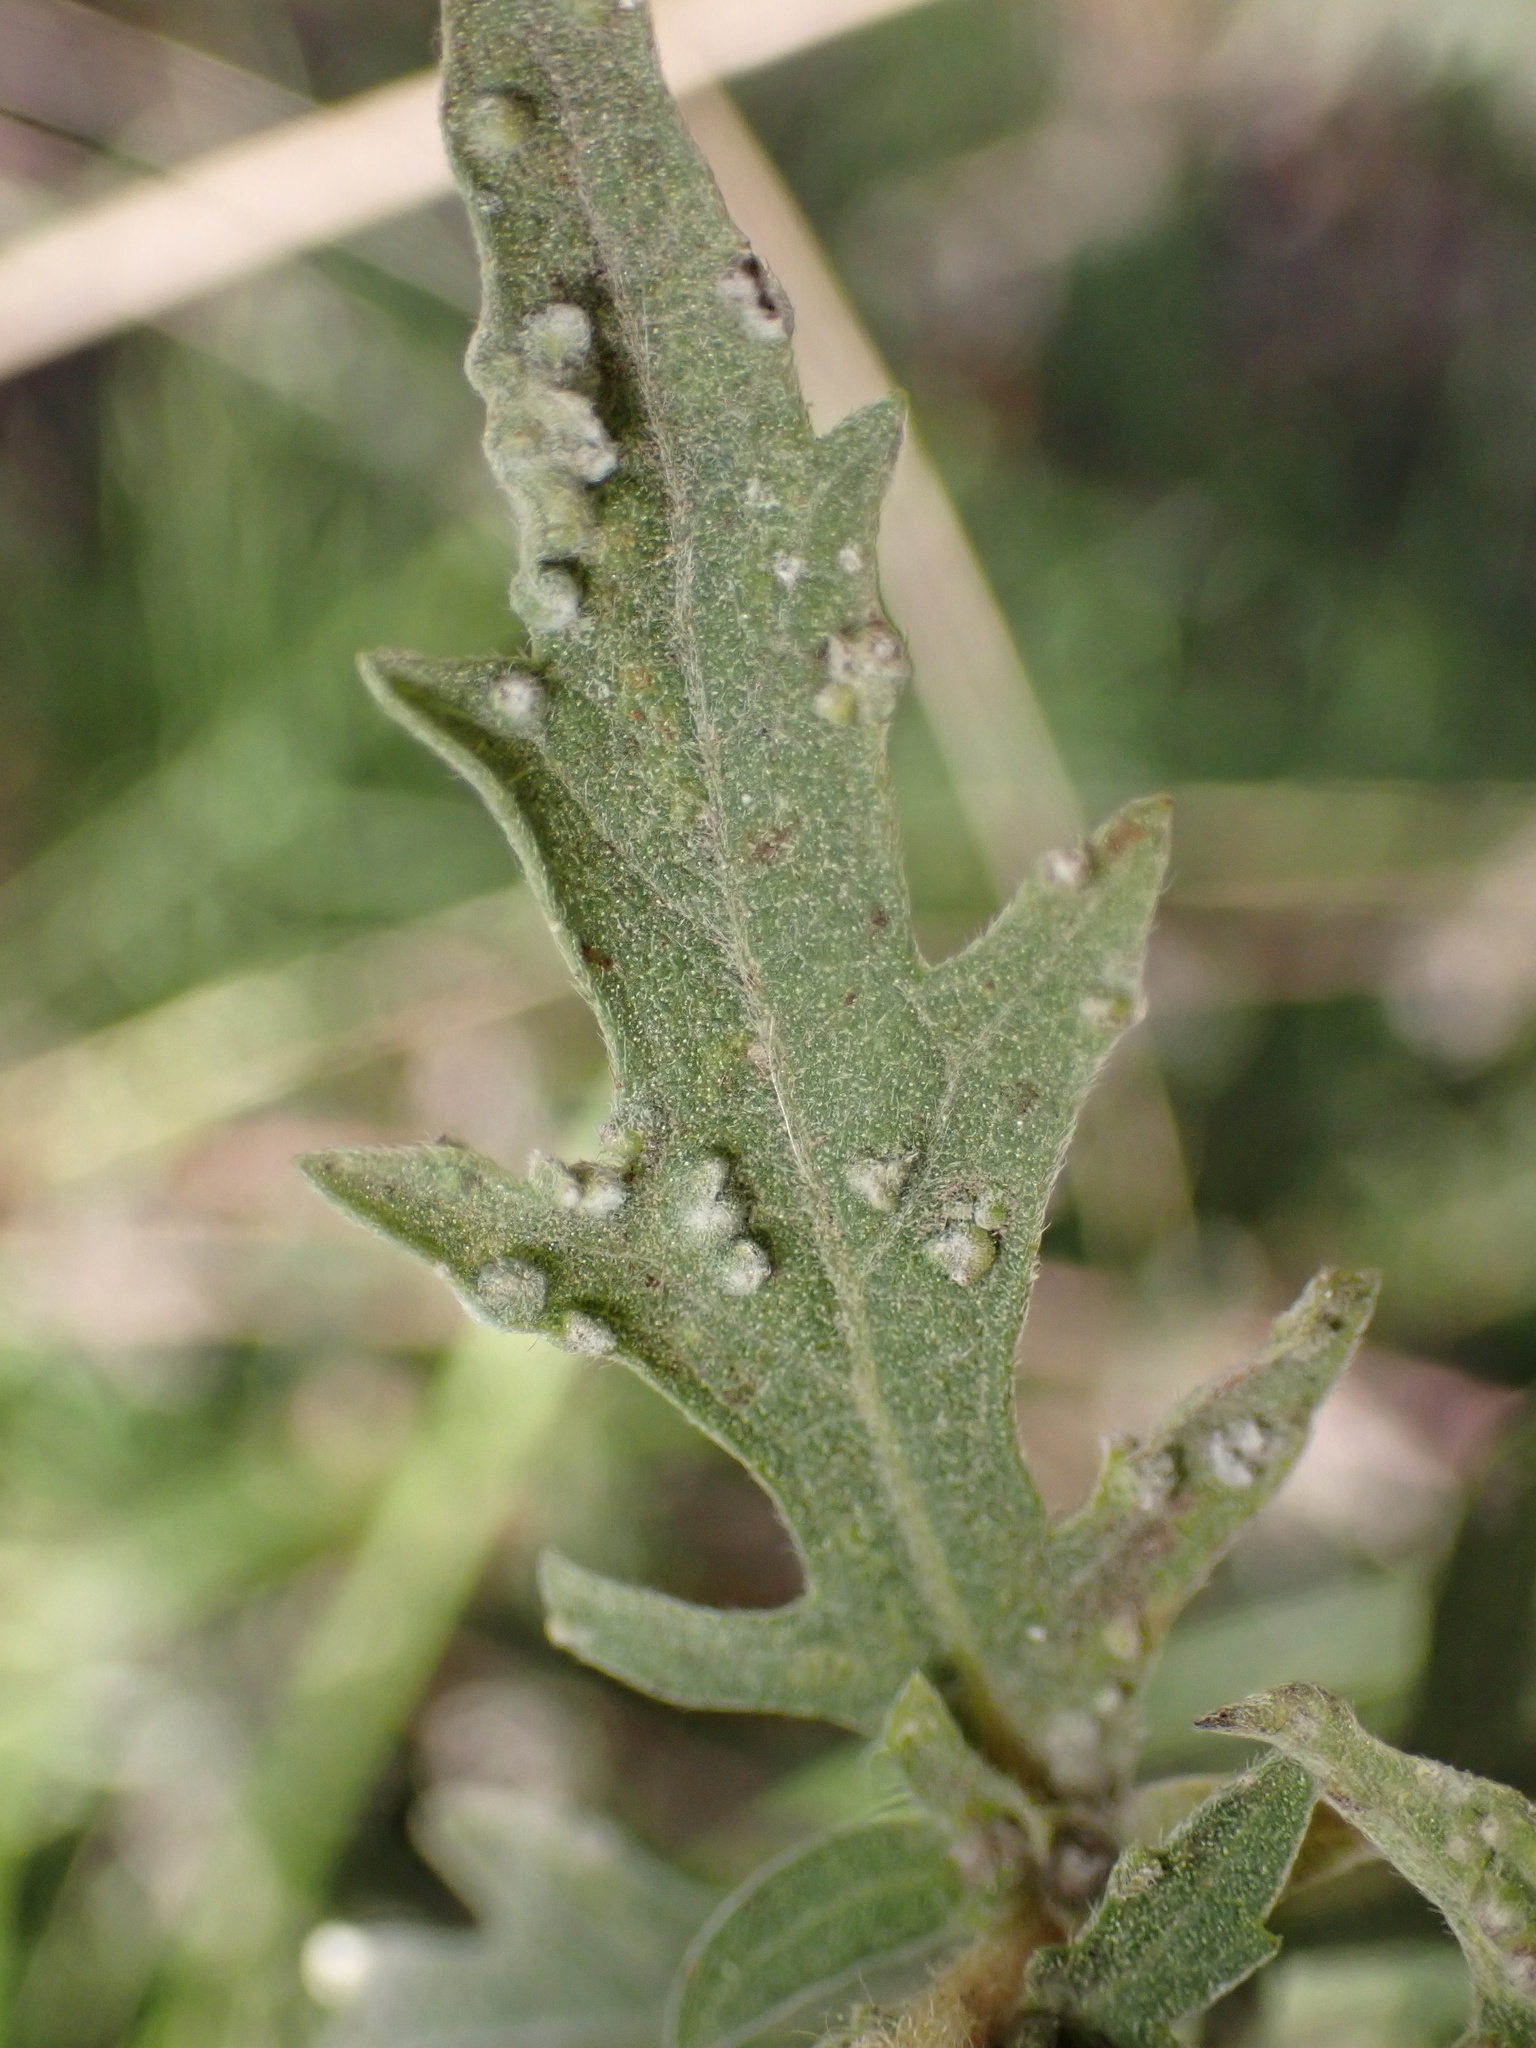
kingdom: Animalia
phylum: Arthropoda
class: Arachnida
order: Trombidiformes
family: Eriophyidae
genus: Aceria
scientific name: Aceria
